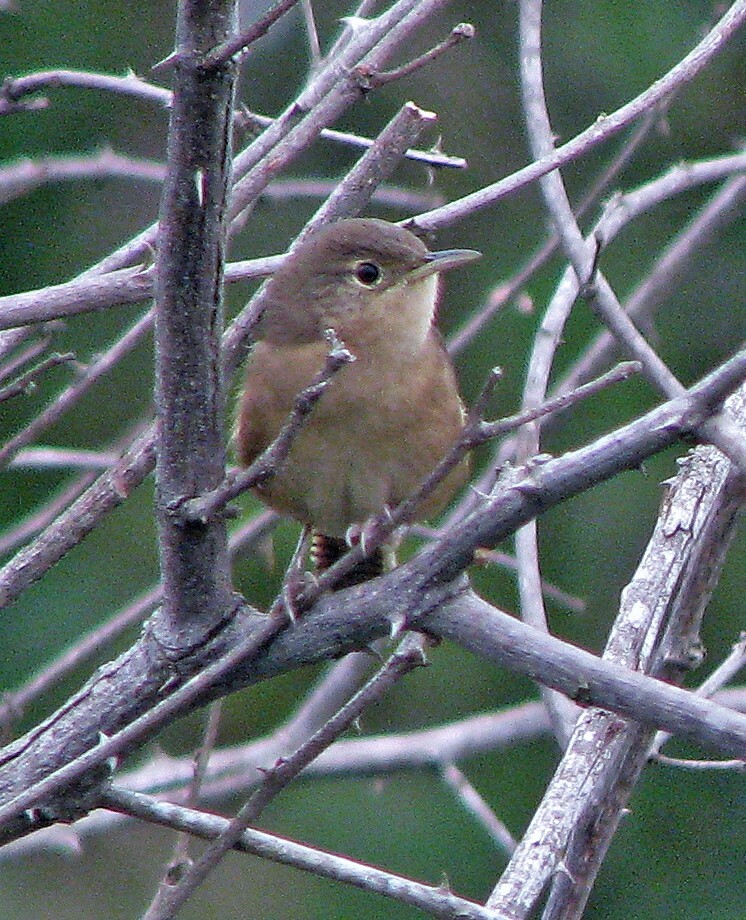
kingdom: Animalia
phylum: Chordata
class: Aves
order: Passeriformes
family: Troglodytidae
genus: Troglodytes
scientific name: Troglodytes aedon
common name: House wren
